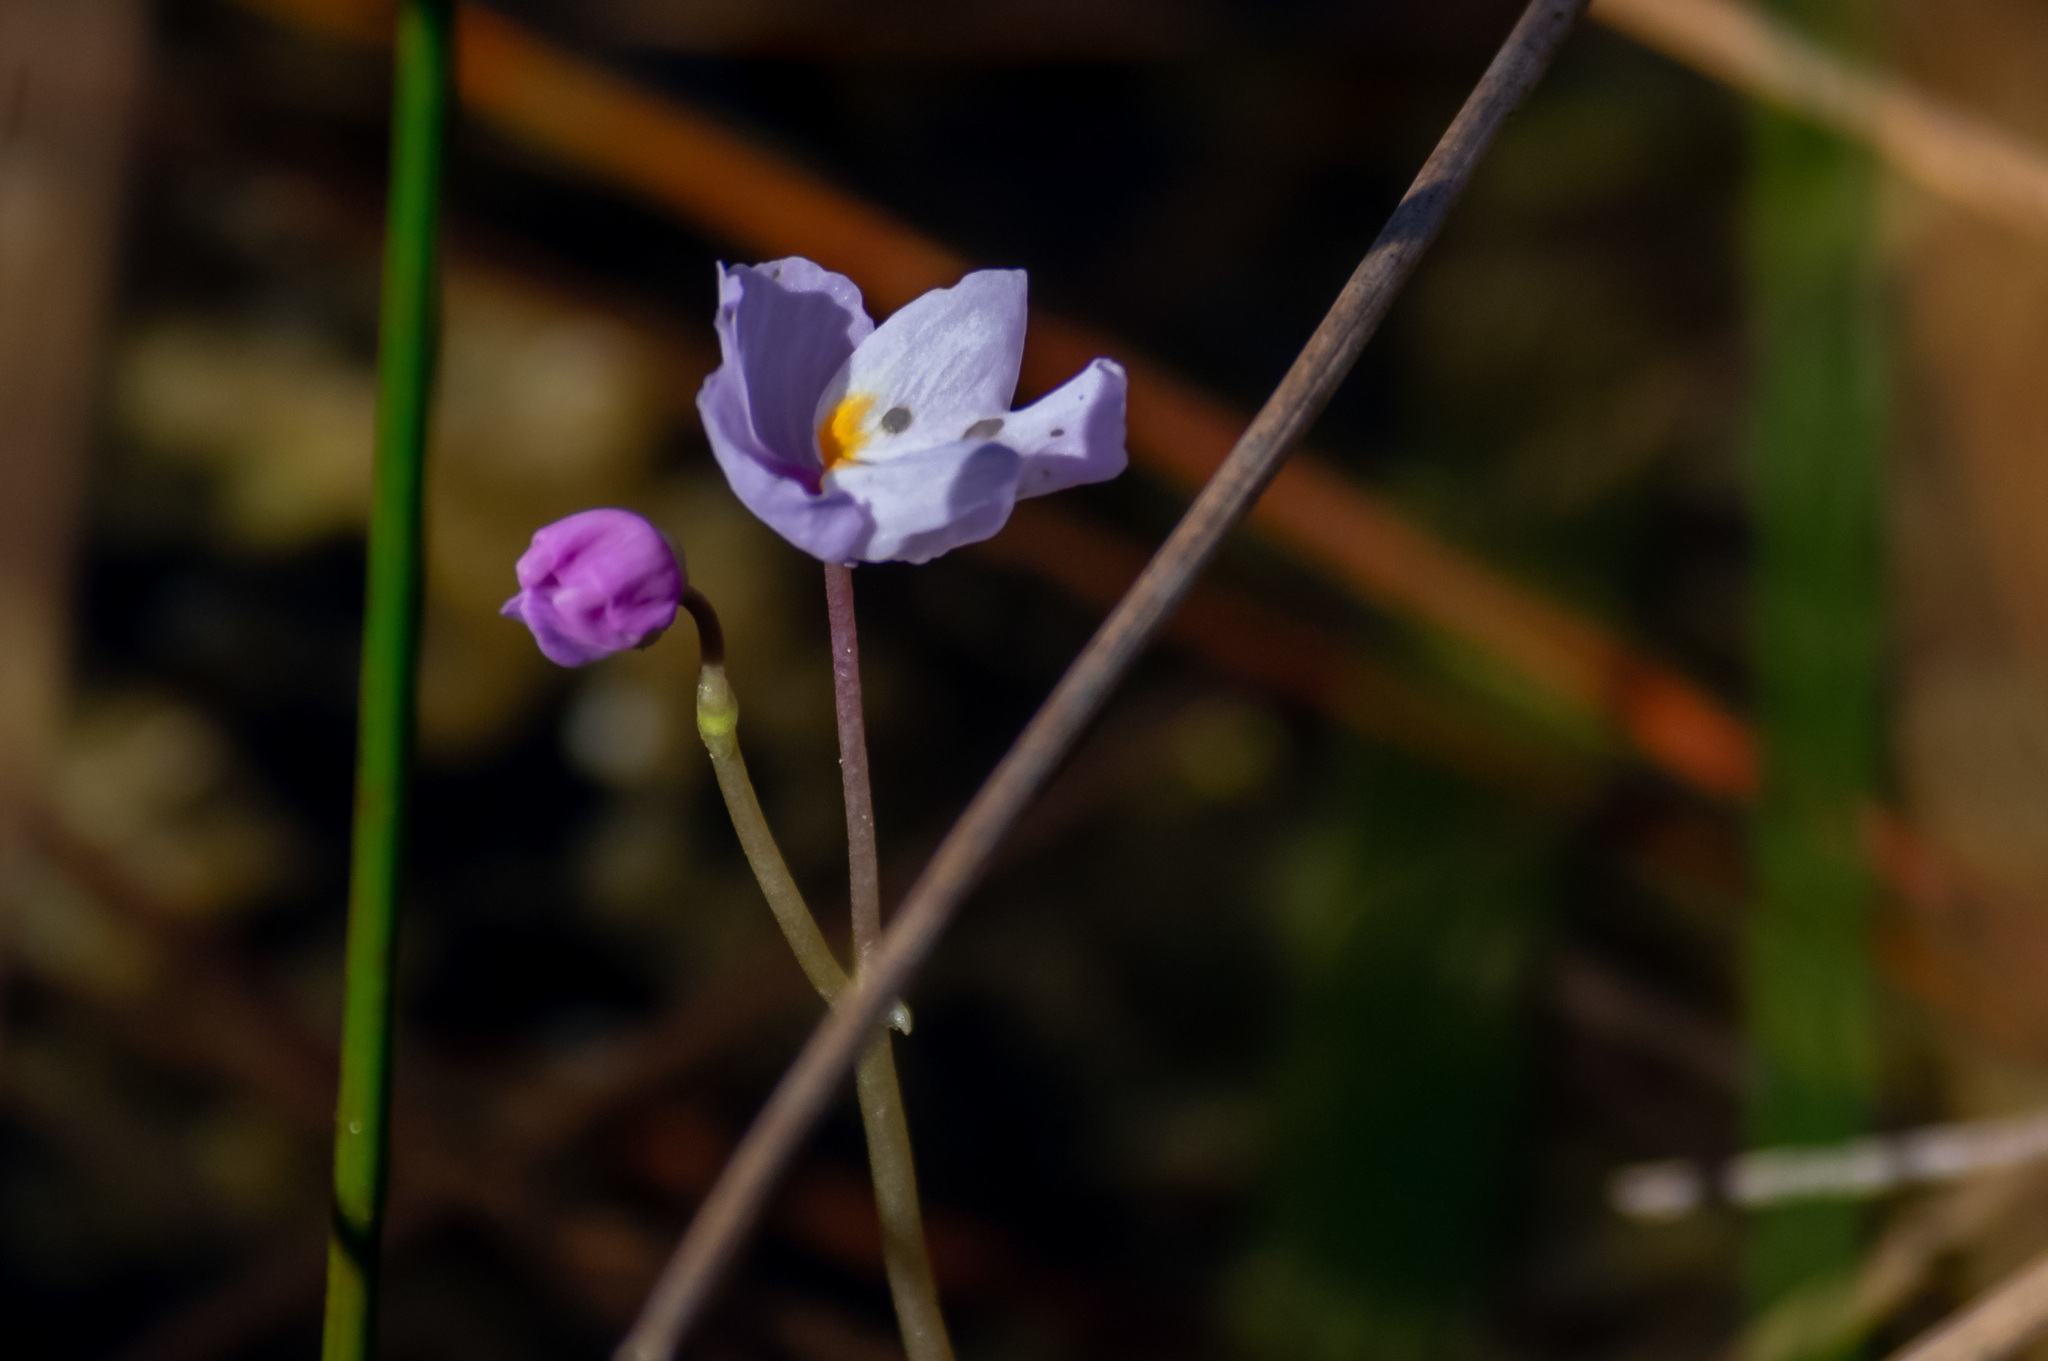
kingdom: Plantae
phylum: Tracheophyta
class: Magnoliopsida
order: Lamiales
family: Lentibulariaceae
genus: Utricularia
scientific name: Utricularia purpurea
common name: Eastern purple bladderwort
